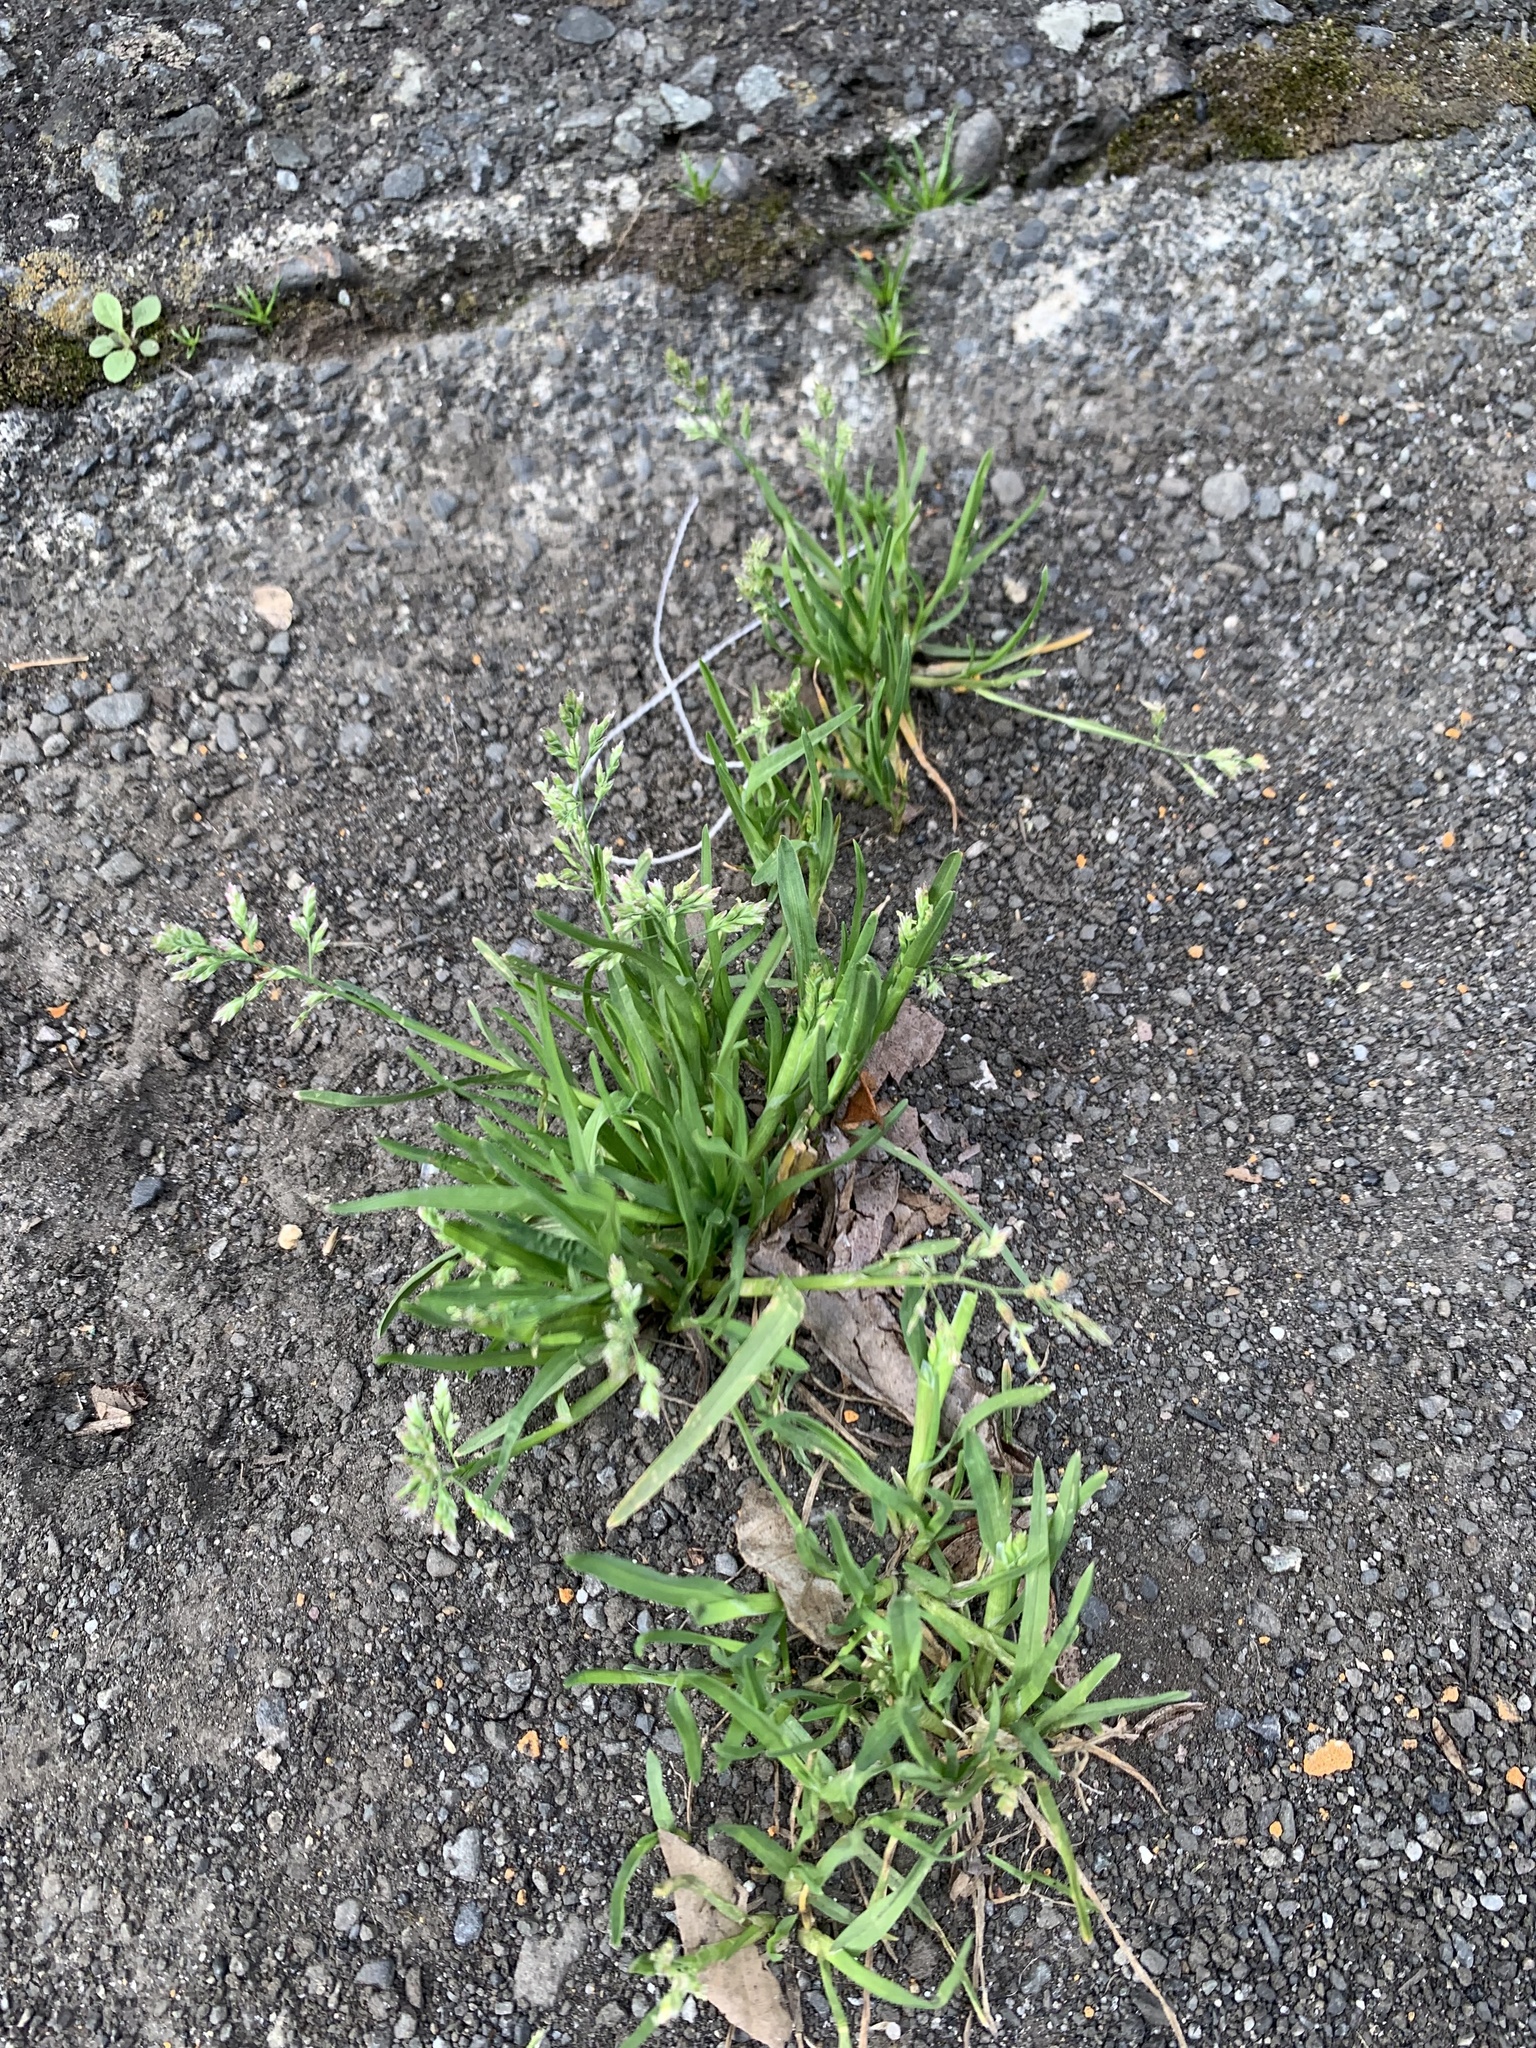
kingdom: Plantae
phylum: Tracheophyta
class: Liliopsida
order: Poales
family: Poaceae
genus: Poa
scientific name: Poa annua
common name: Annual bluegrass
